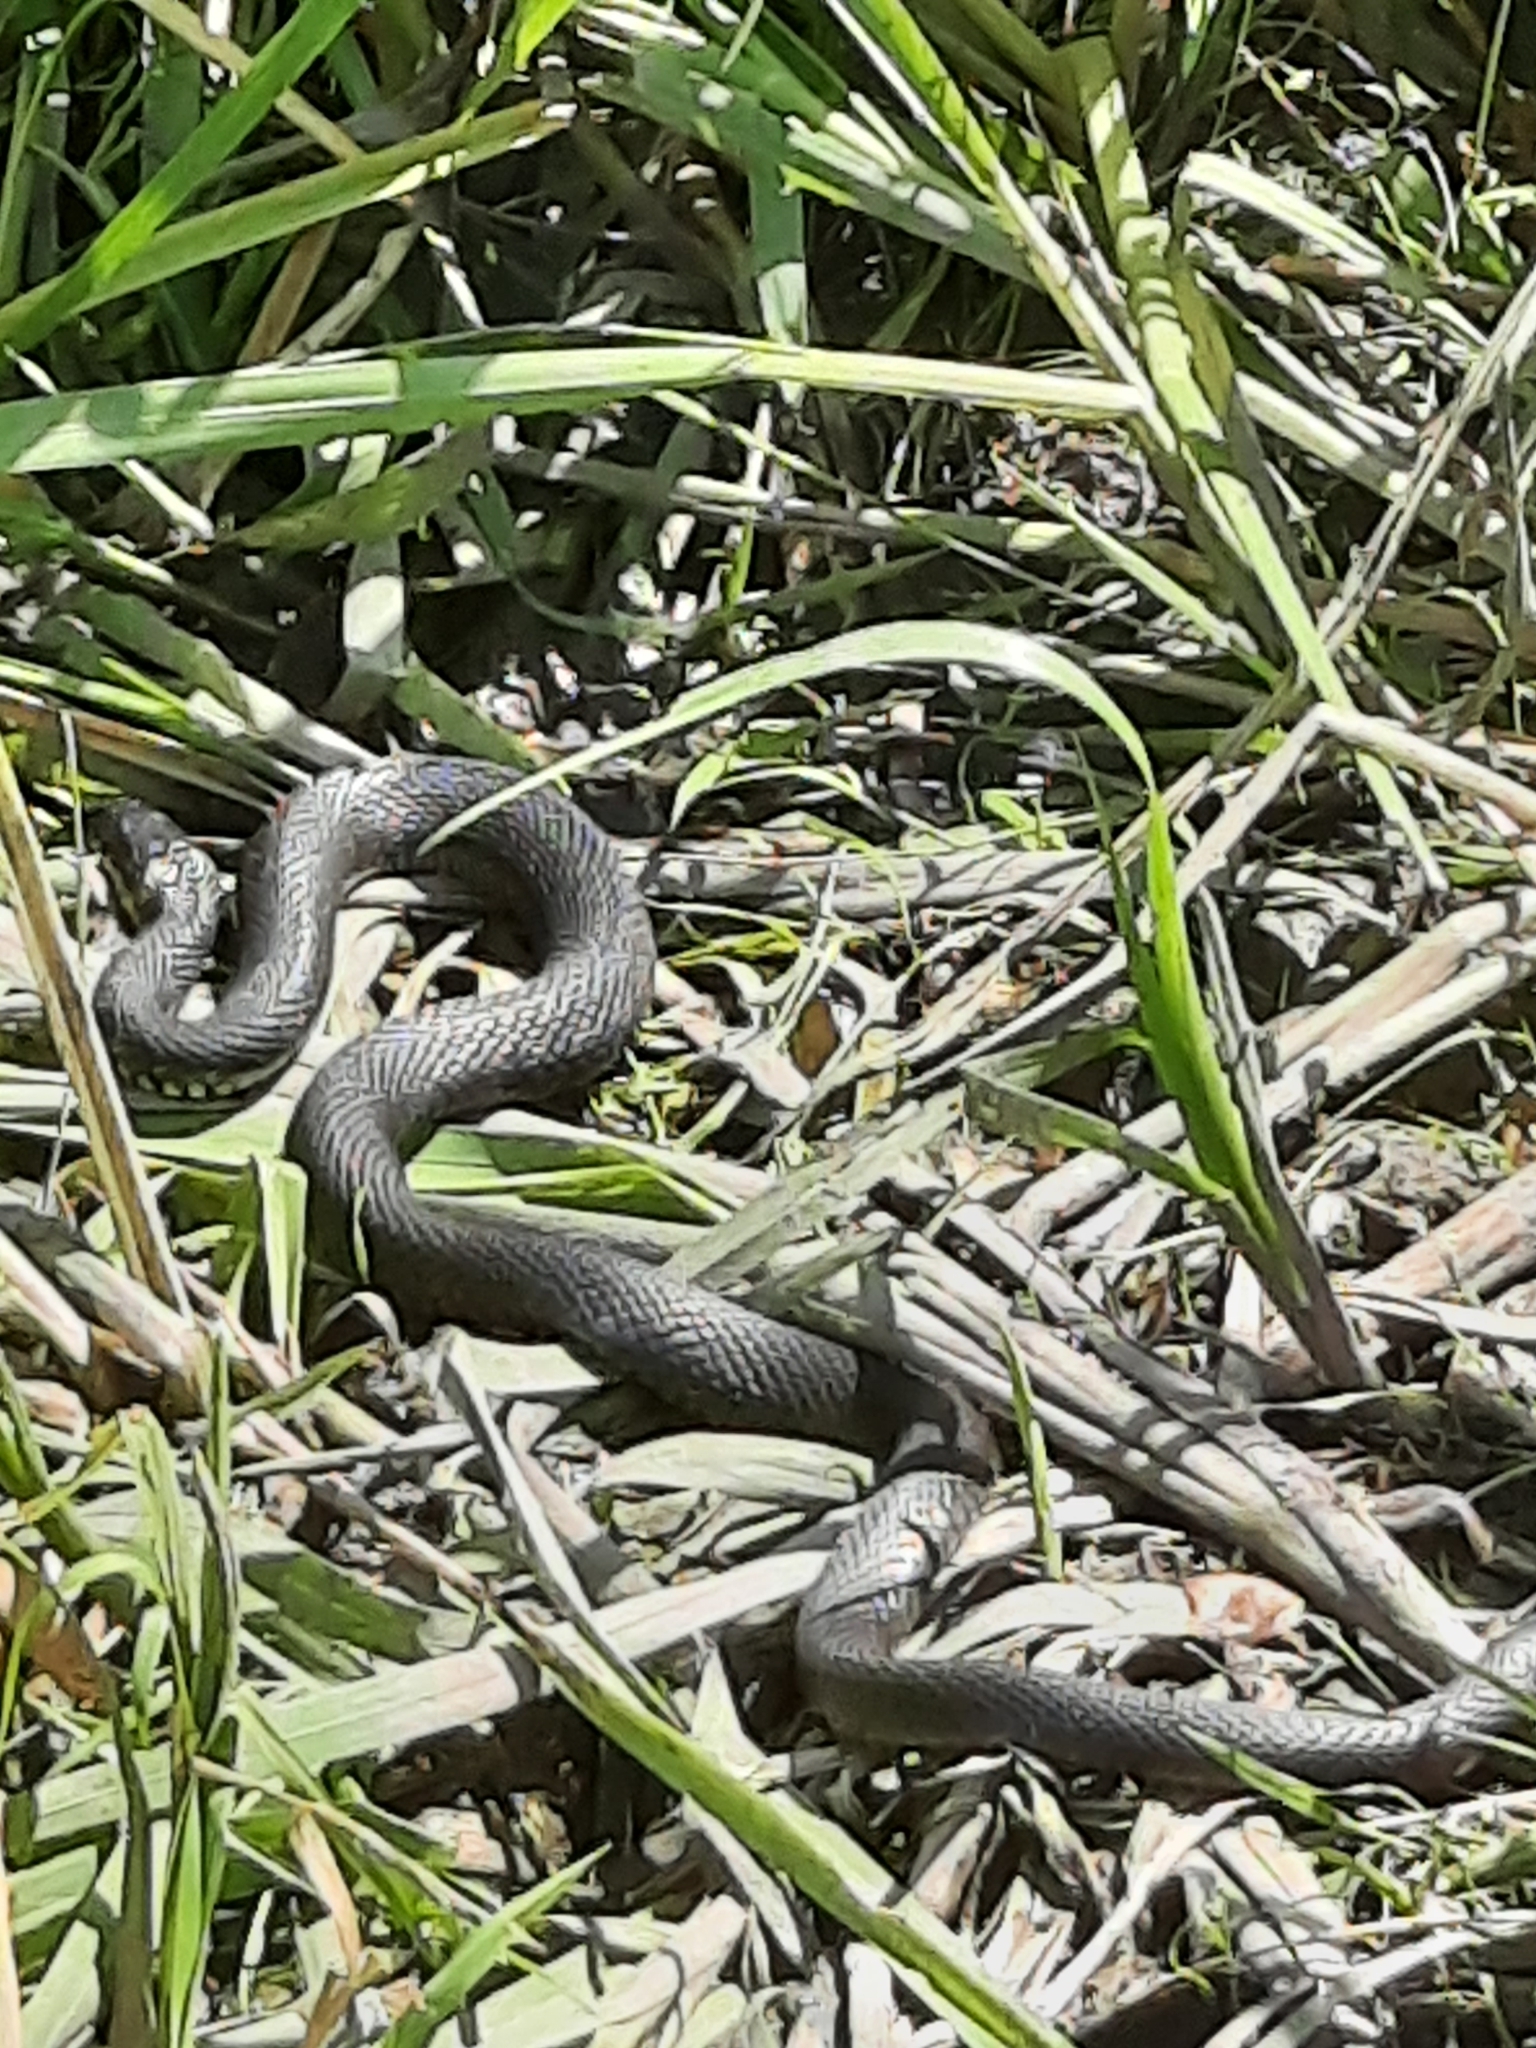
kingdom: Animalia
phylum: Chordata
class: Squamata
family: Colubridae
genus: Natrix
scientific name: Natrix natrix
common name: Grass snake
